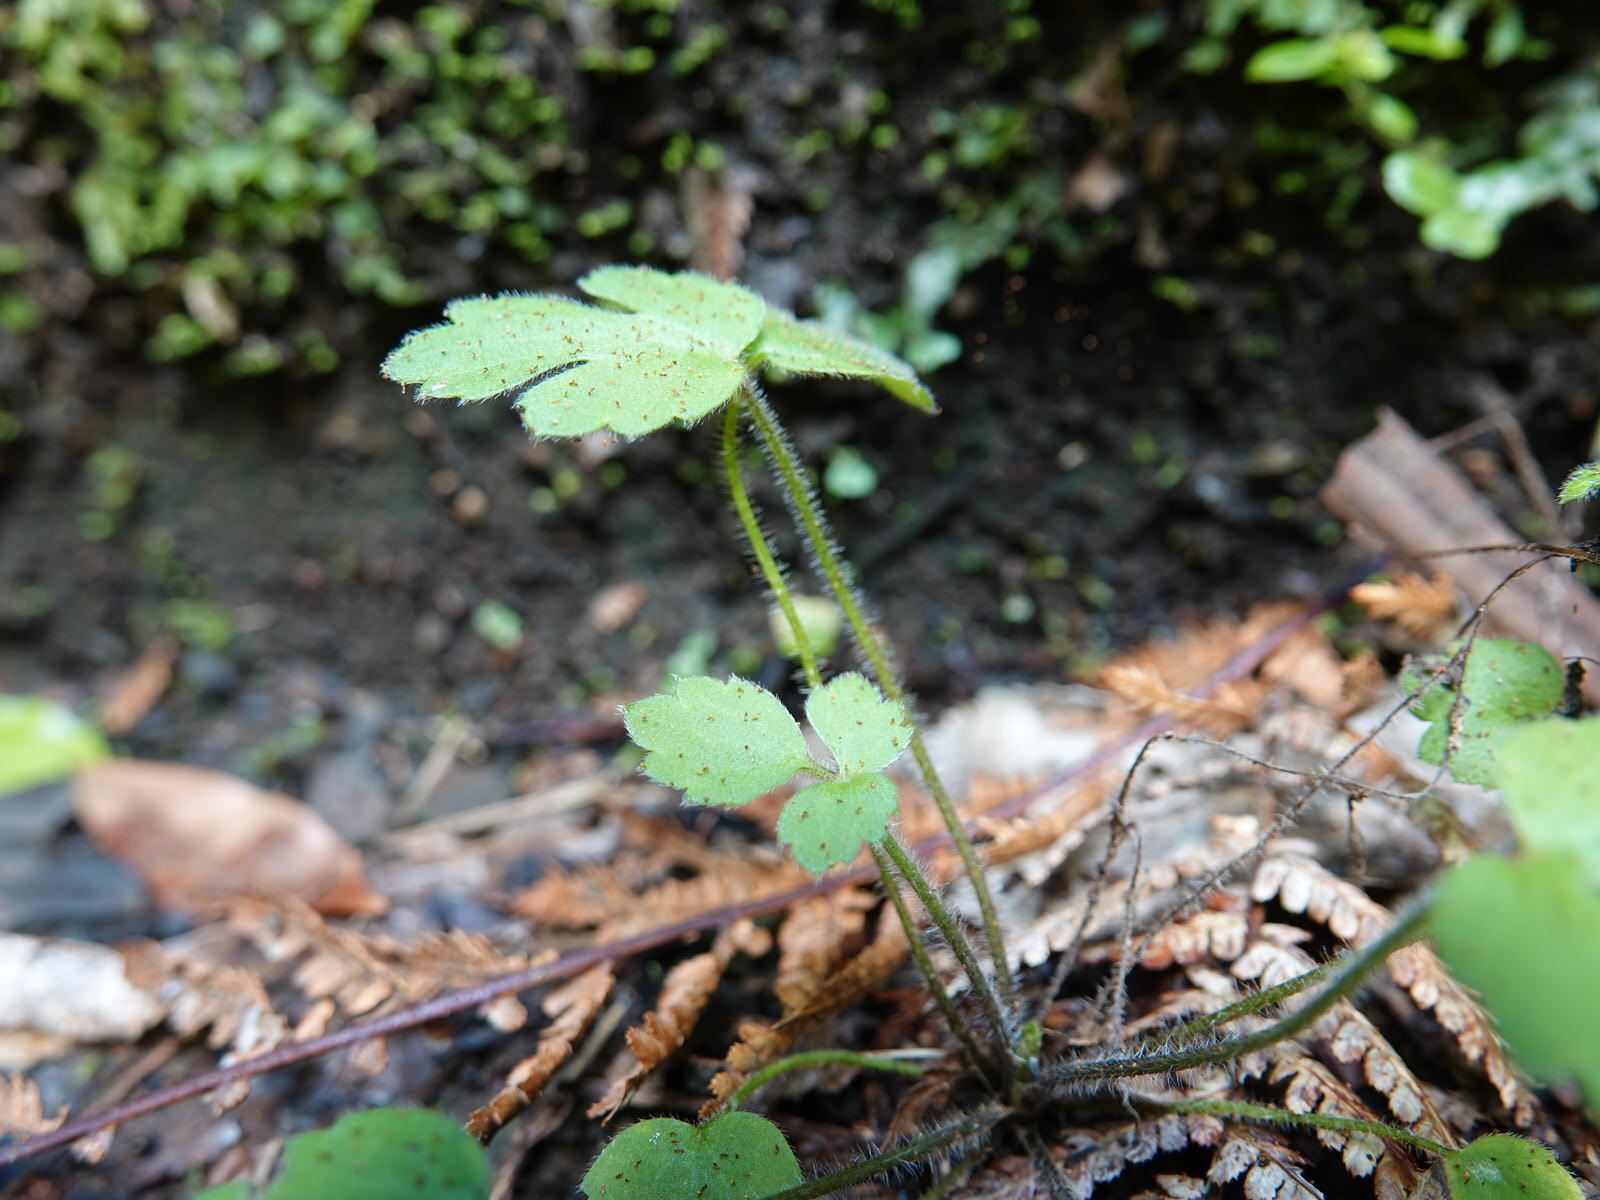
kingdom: Plantae
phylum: Tracheophyta
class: Magnoliopsida
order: Ranunculales
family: Ranunculaceae
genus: Ranunculus
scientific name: Ranunculus reflexus
